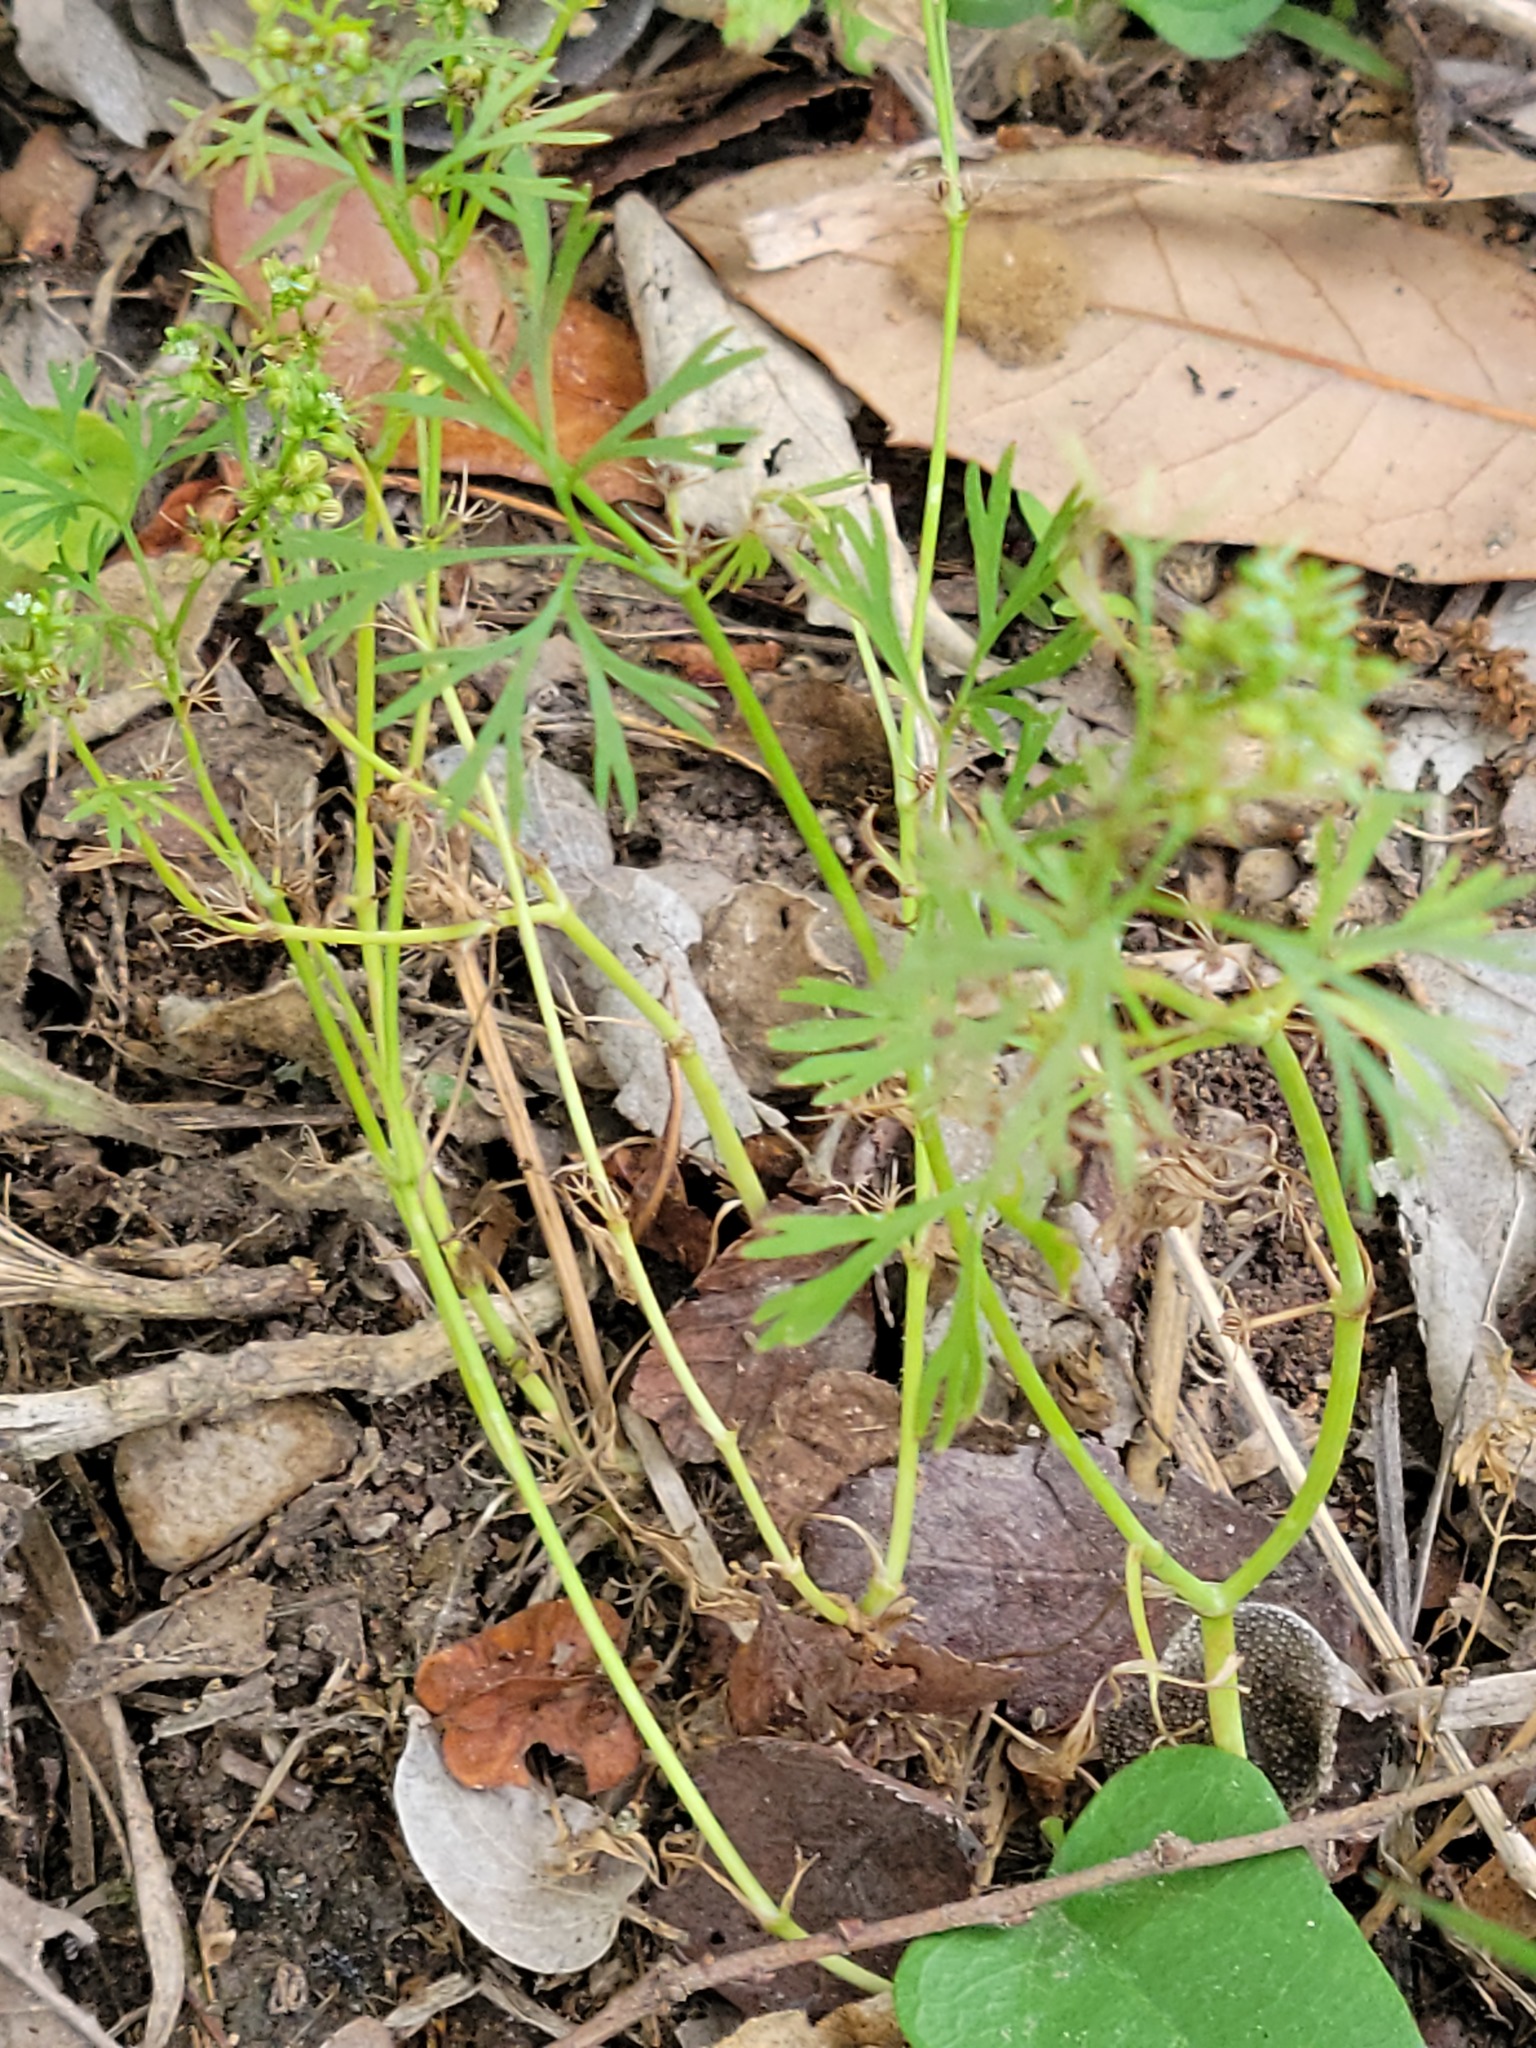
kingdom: Plantae
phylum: Tracheophyta
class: Magnoliopsida
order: Apiales
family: Apiaceae
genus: Ammoselinum
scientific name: Ammoselinum butleri
